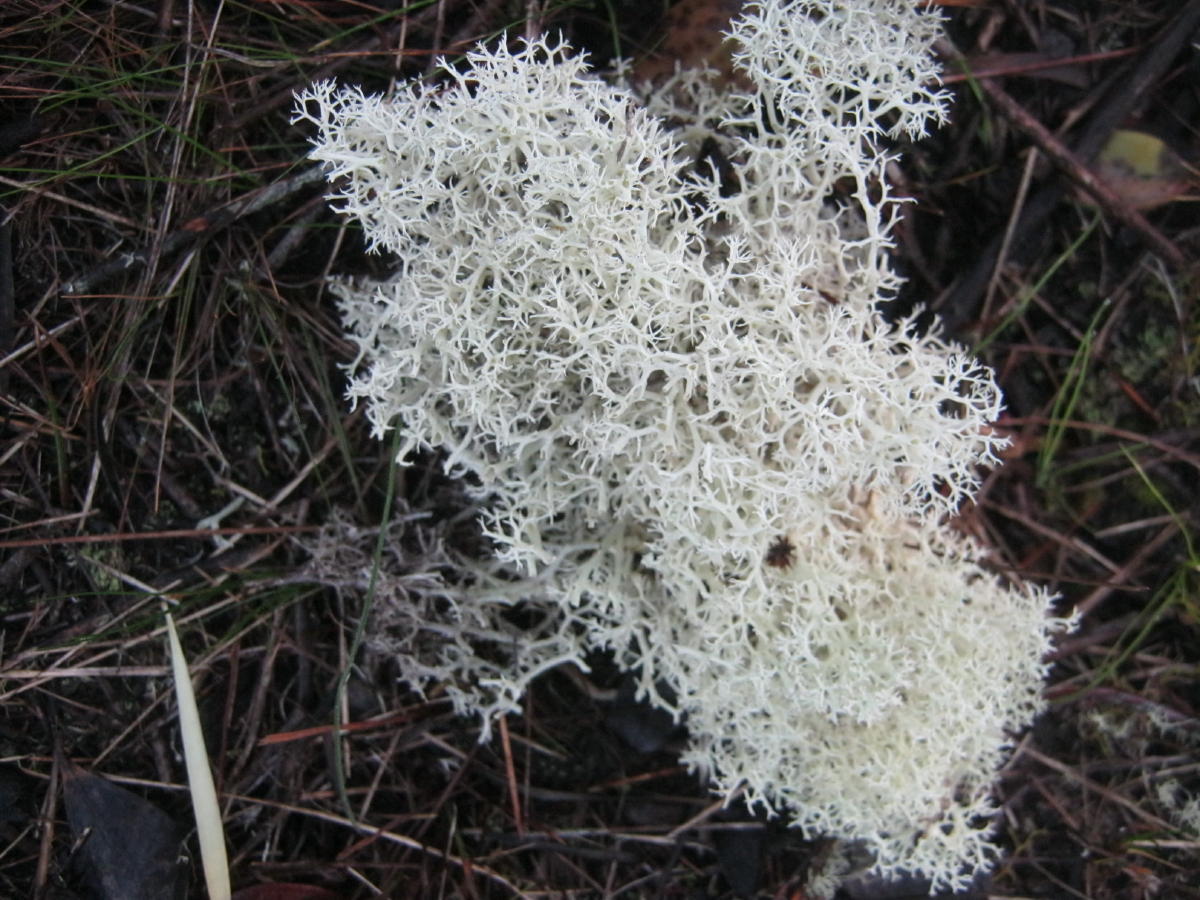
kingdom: Fungi
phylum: Ascomycota
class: Lecanoromycetes
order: Lecanorales
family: Cladoniaceae
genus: Cladonia
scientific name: Cladonia confusa
